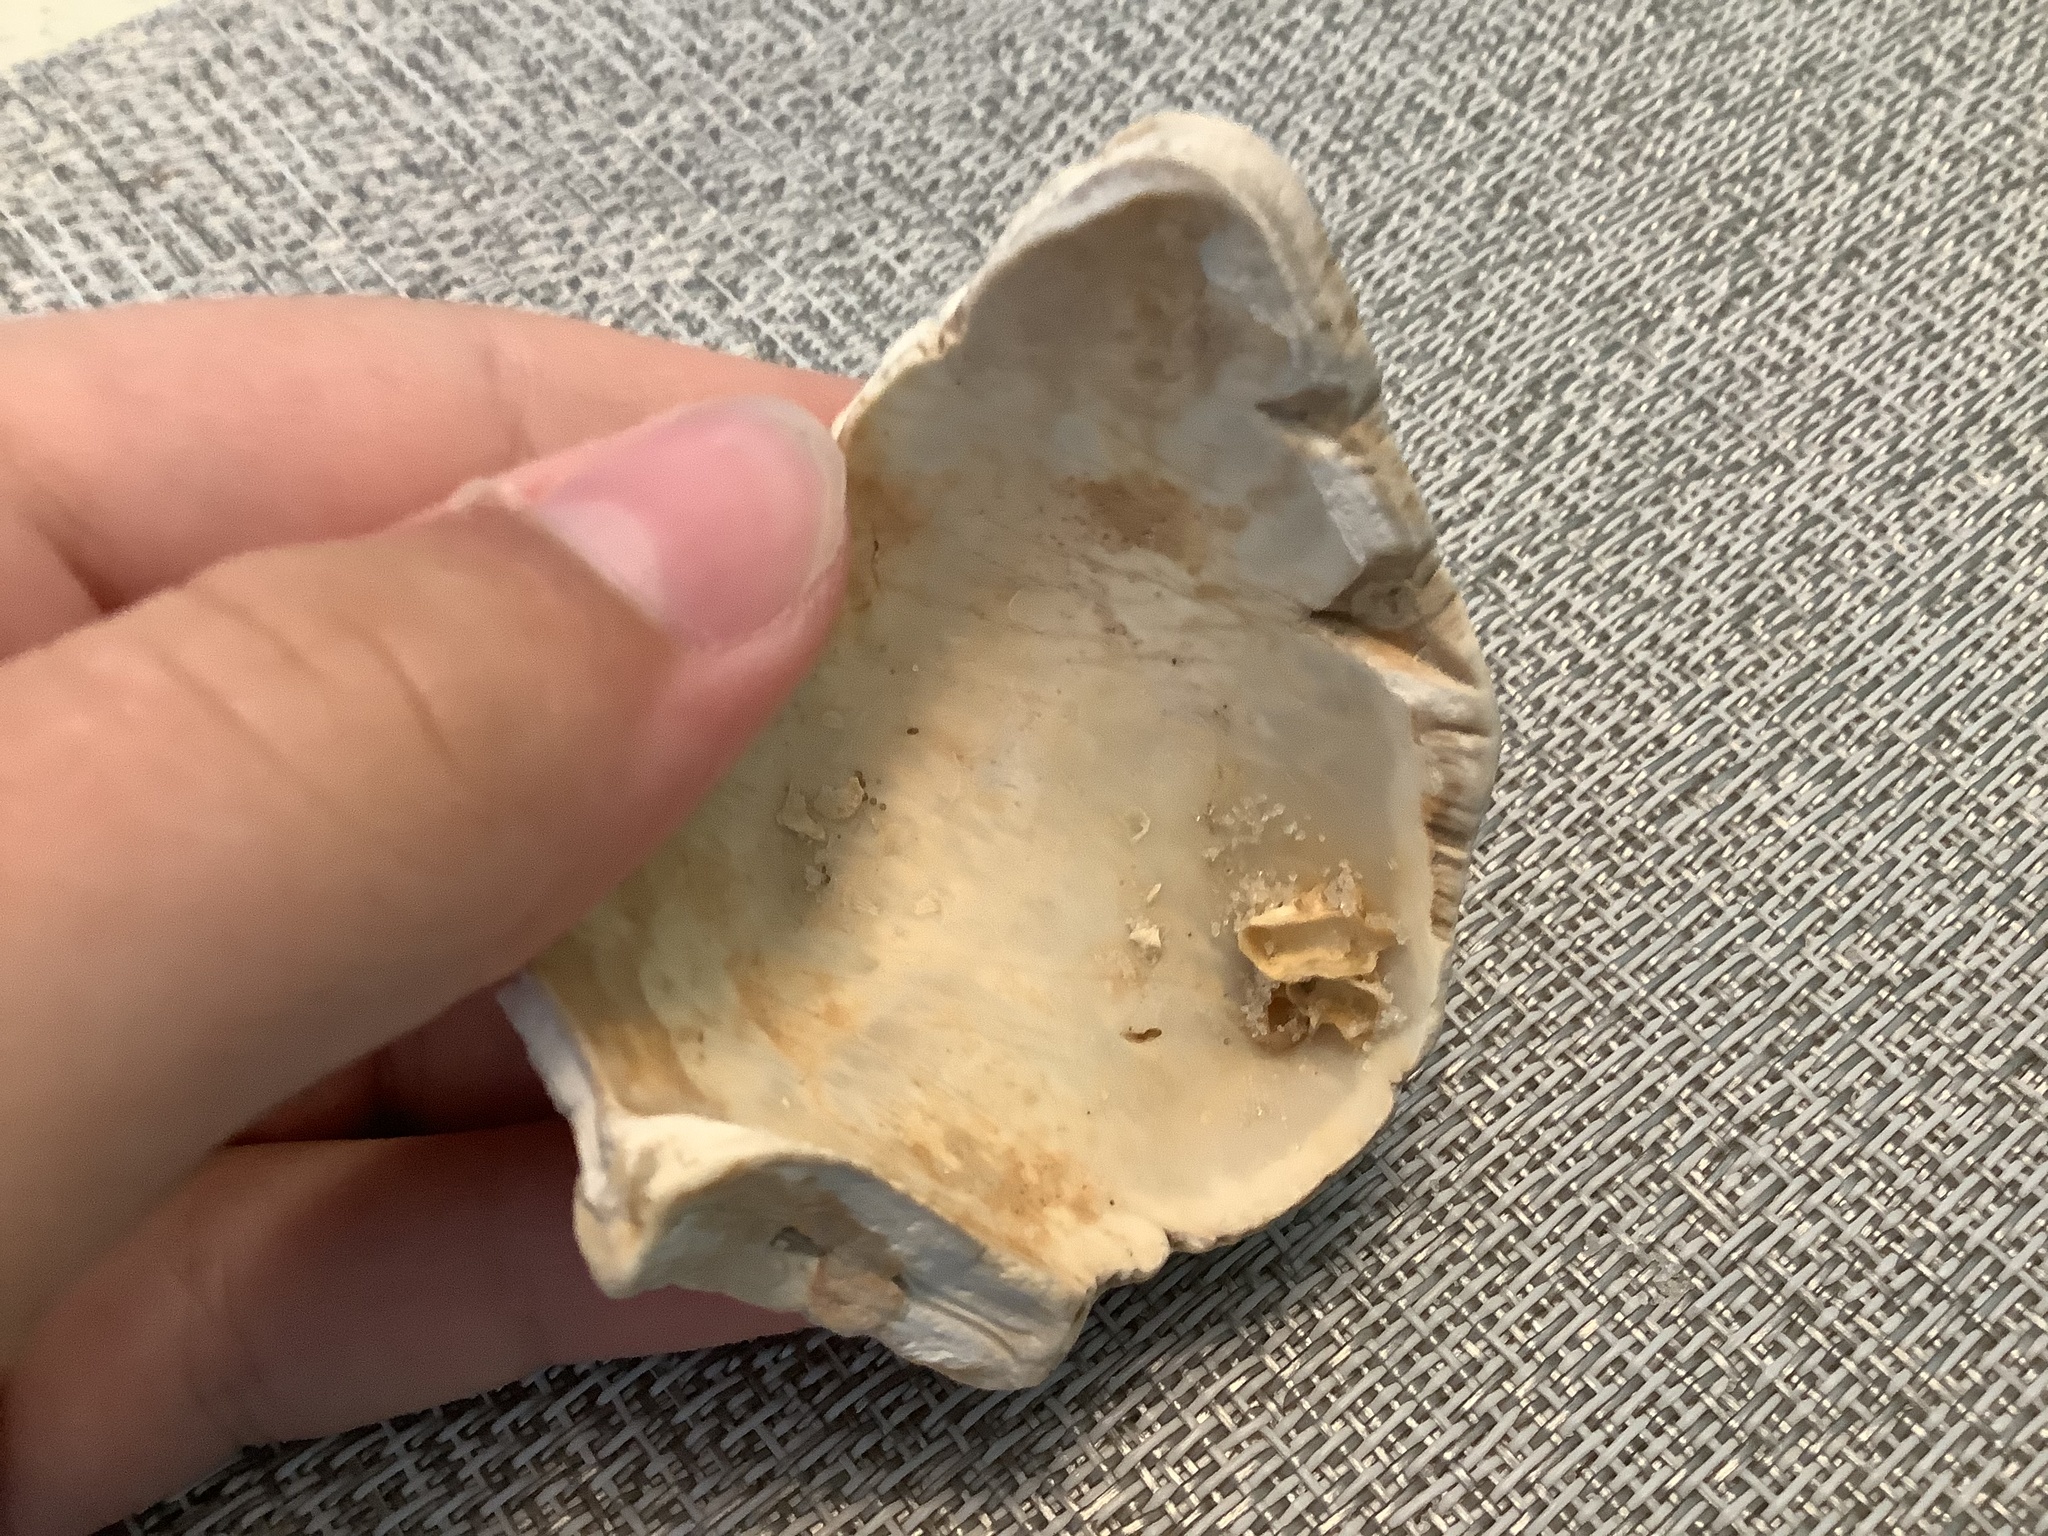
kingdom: Animalia
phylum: Mollusca
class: Gastropoda
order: Neogastropoda
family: Fasciolariidae
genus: Triplofusus
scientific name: Triplofusus giganteus
